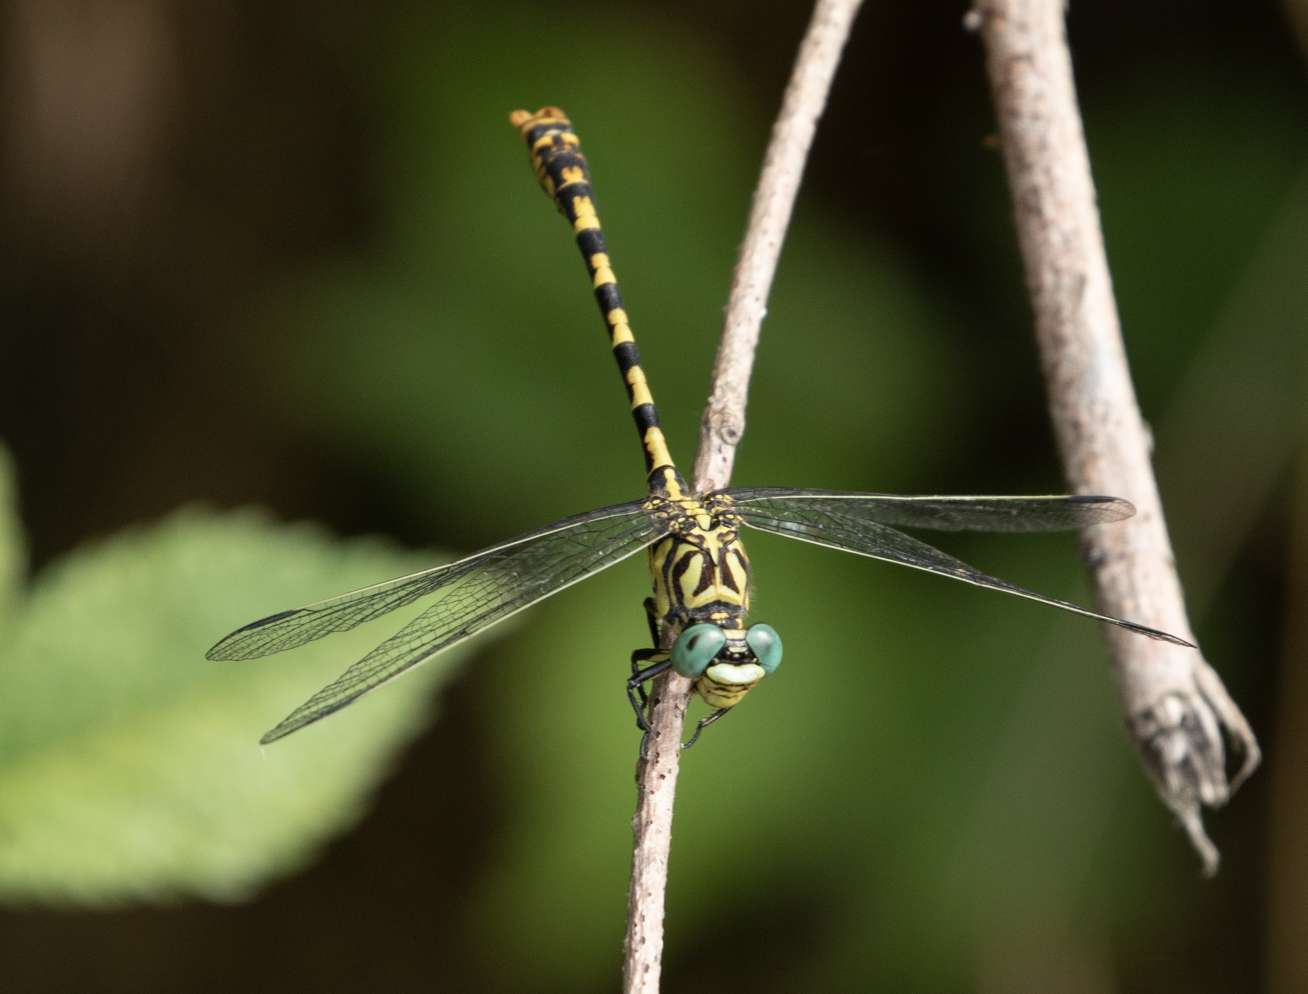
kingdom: Animalia
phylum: Arthropoda
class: Insecta
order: Odonata
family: Gomphidae
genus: Onychogomphus
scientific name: Onychogomphus forcipatus
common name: Small pincertail
